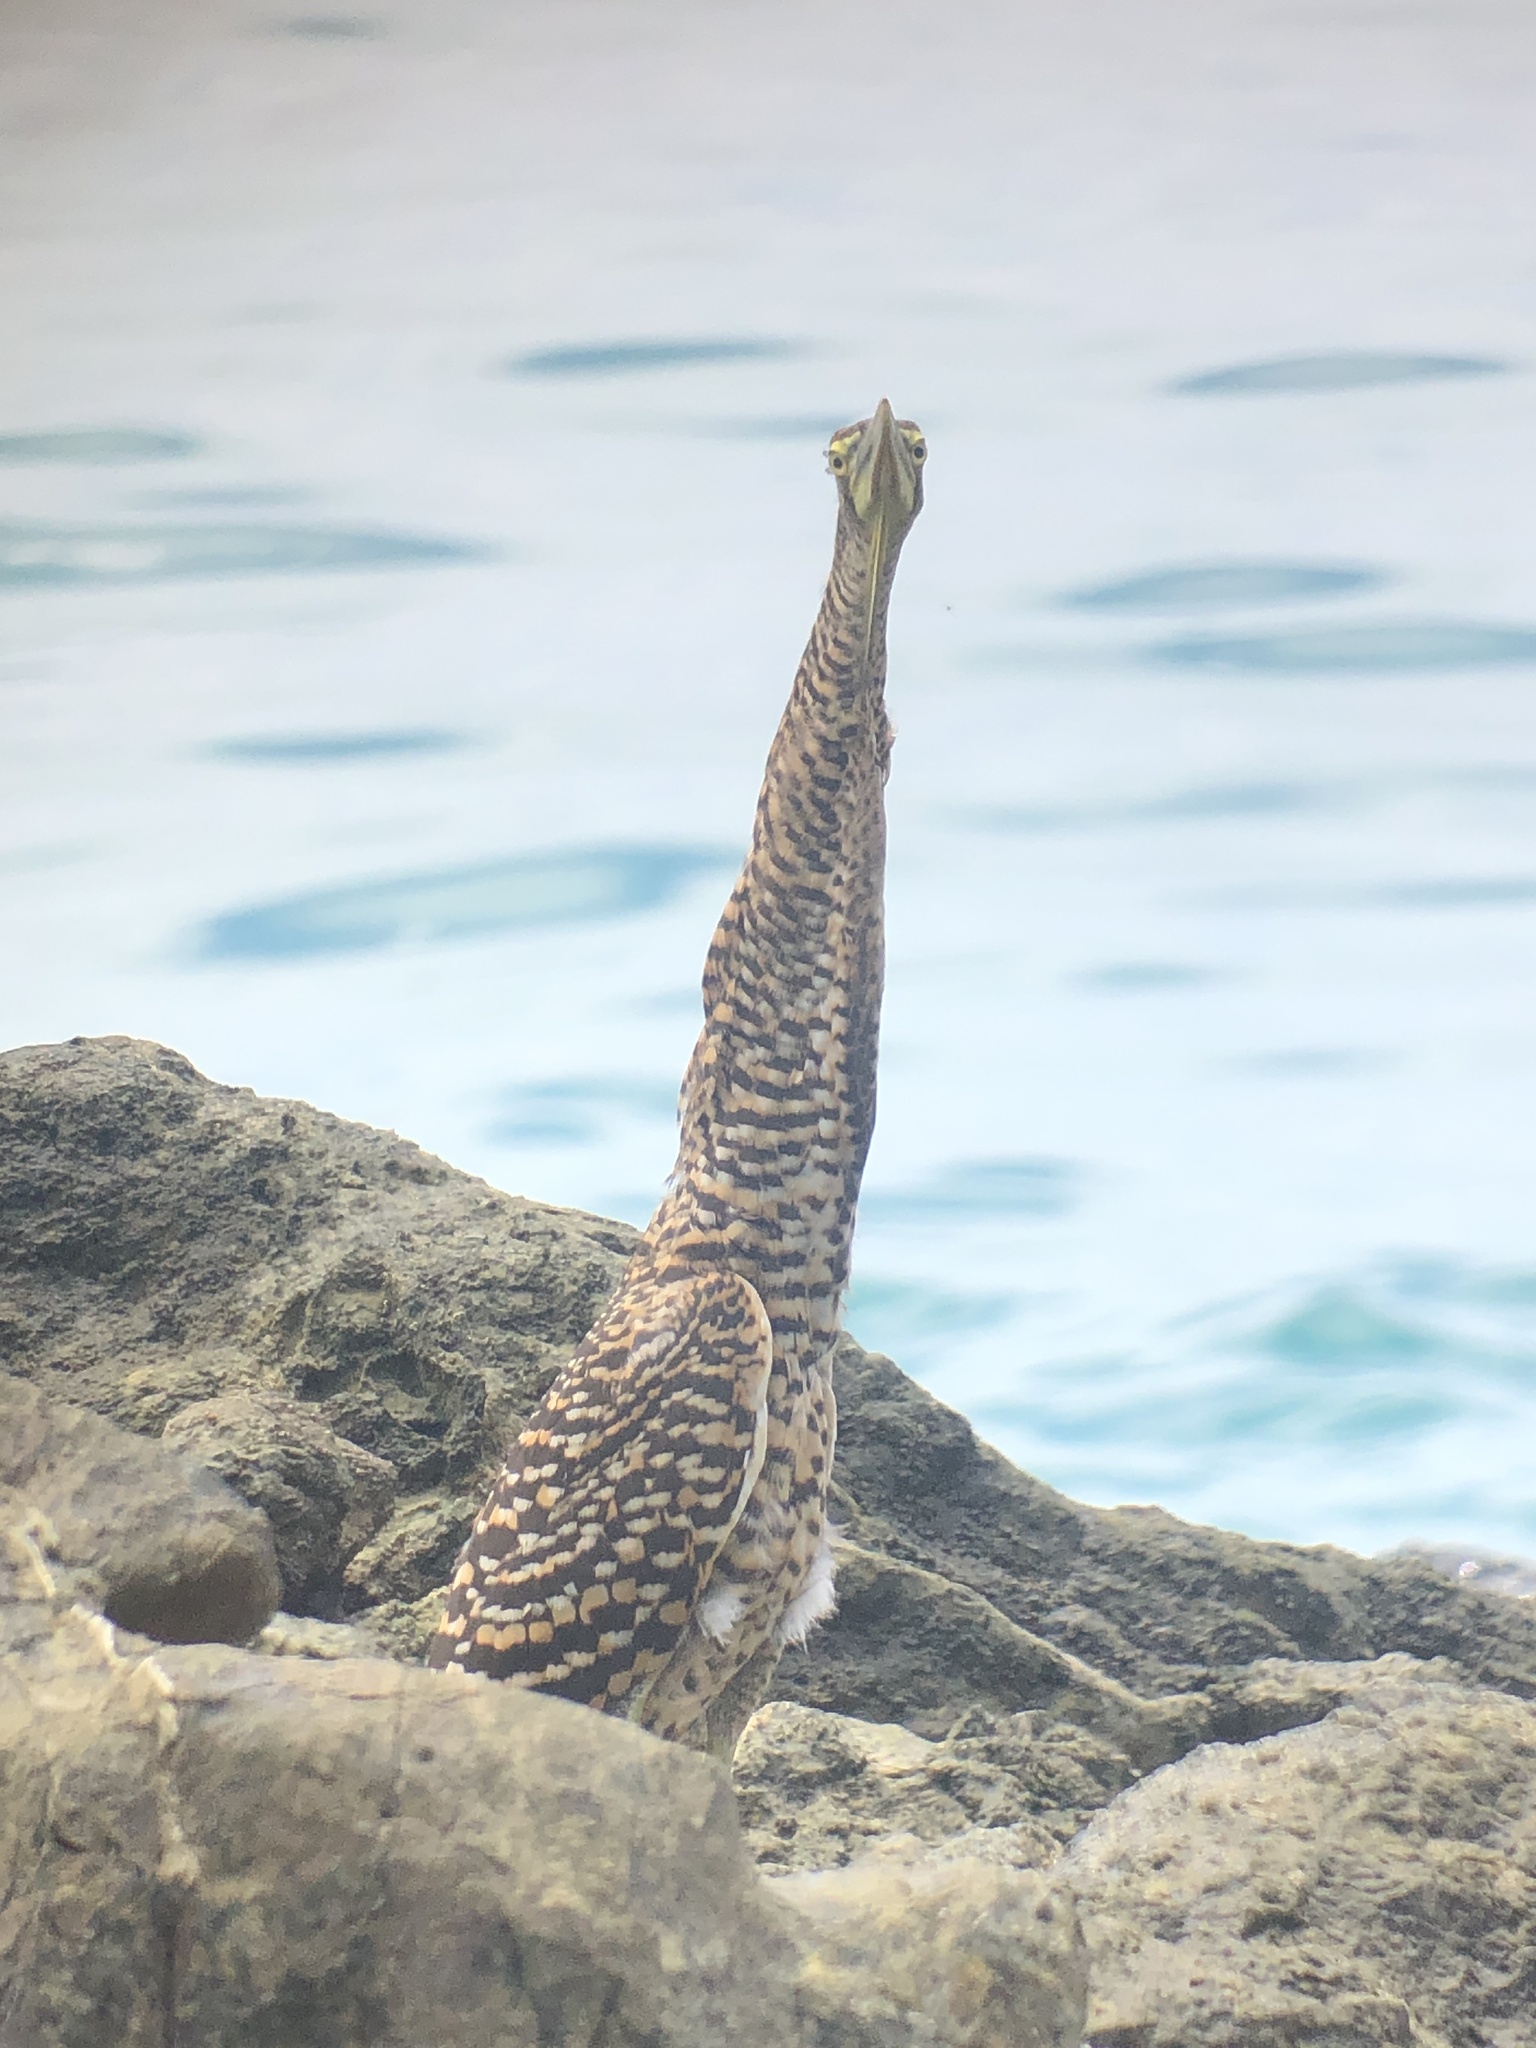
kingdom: Animalia
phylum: Chordata
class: Aves
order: Pelecaniformes
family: Ardeidae
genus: Tigrisoma
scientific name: Tigrisoma mexicanum
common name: Bare-throated tiger-heron
